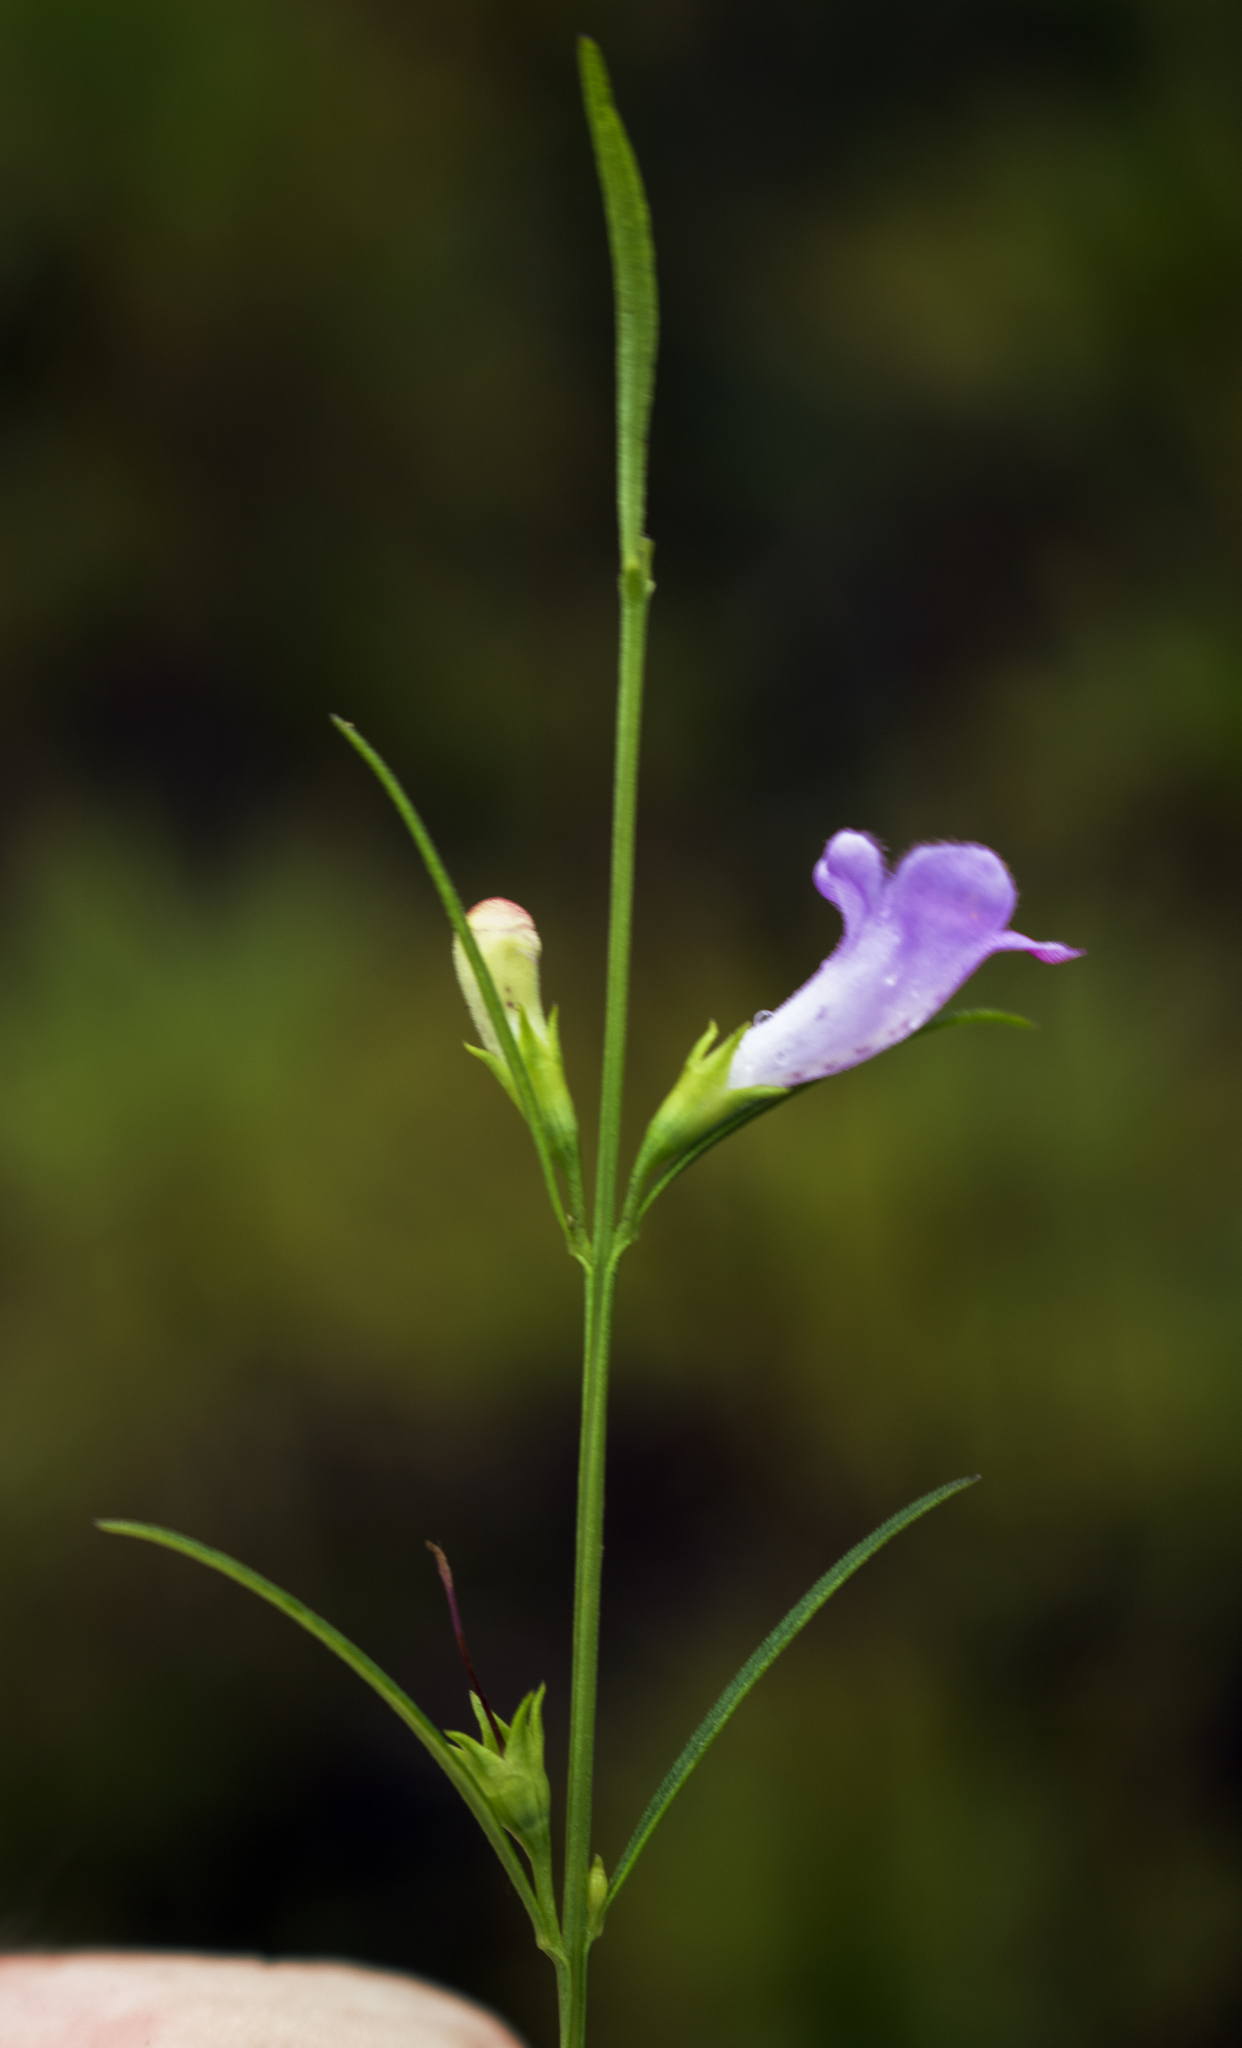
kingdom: Plantae
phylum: Tracheophyta
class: Magnoliopsida
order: Lamiales
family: Orobanchaceae
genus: Agalinis
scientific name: Agalinis purpurea
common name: Purple false foxglove
